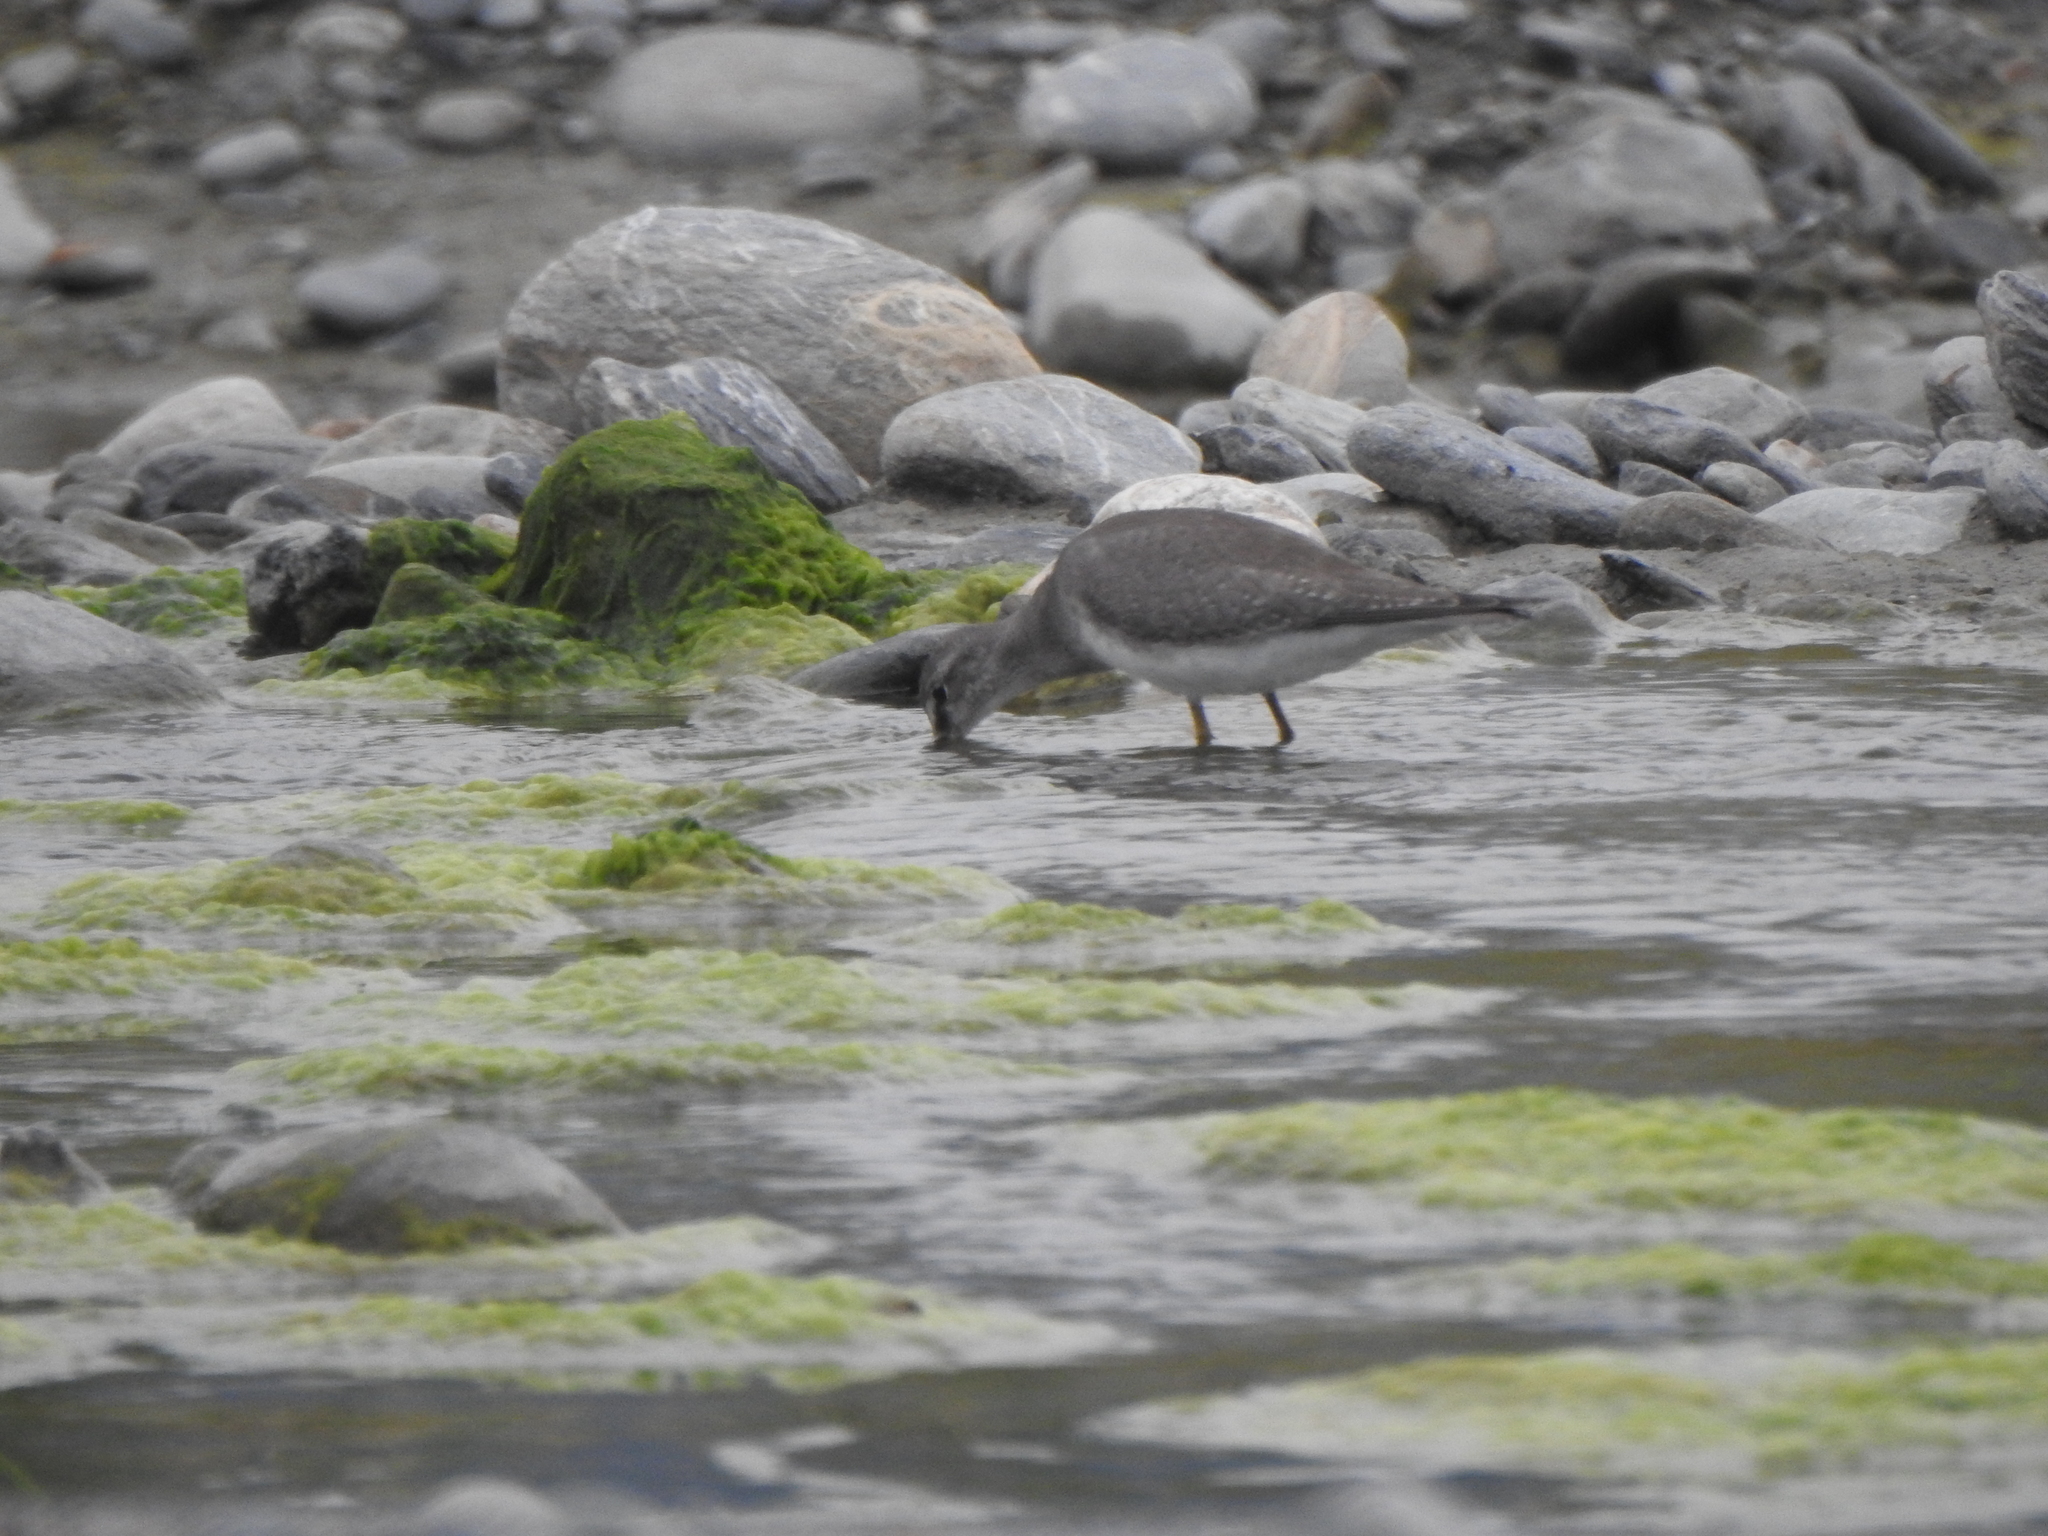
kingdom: Animalia
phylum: Chordata
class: Aves
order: Charadriiformes
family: Scolopacidae
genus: Tringa
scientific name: Tringa brevipes
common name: Grey-tailed tattler
